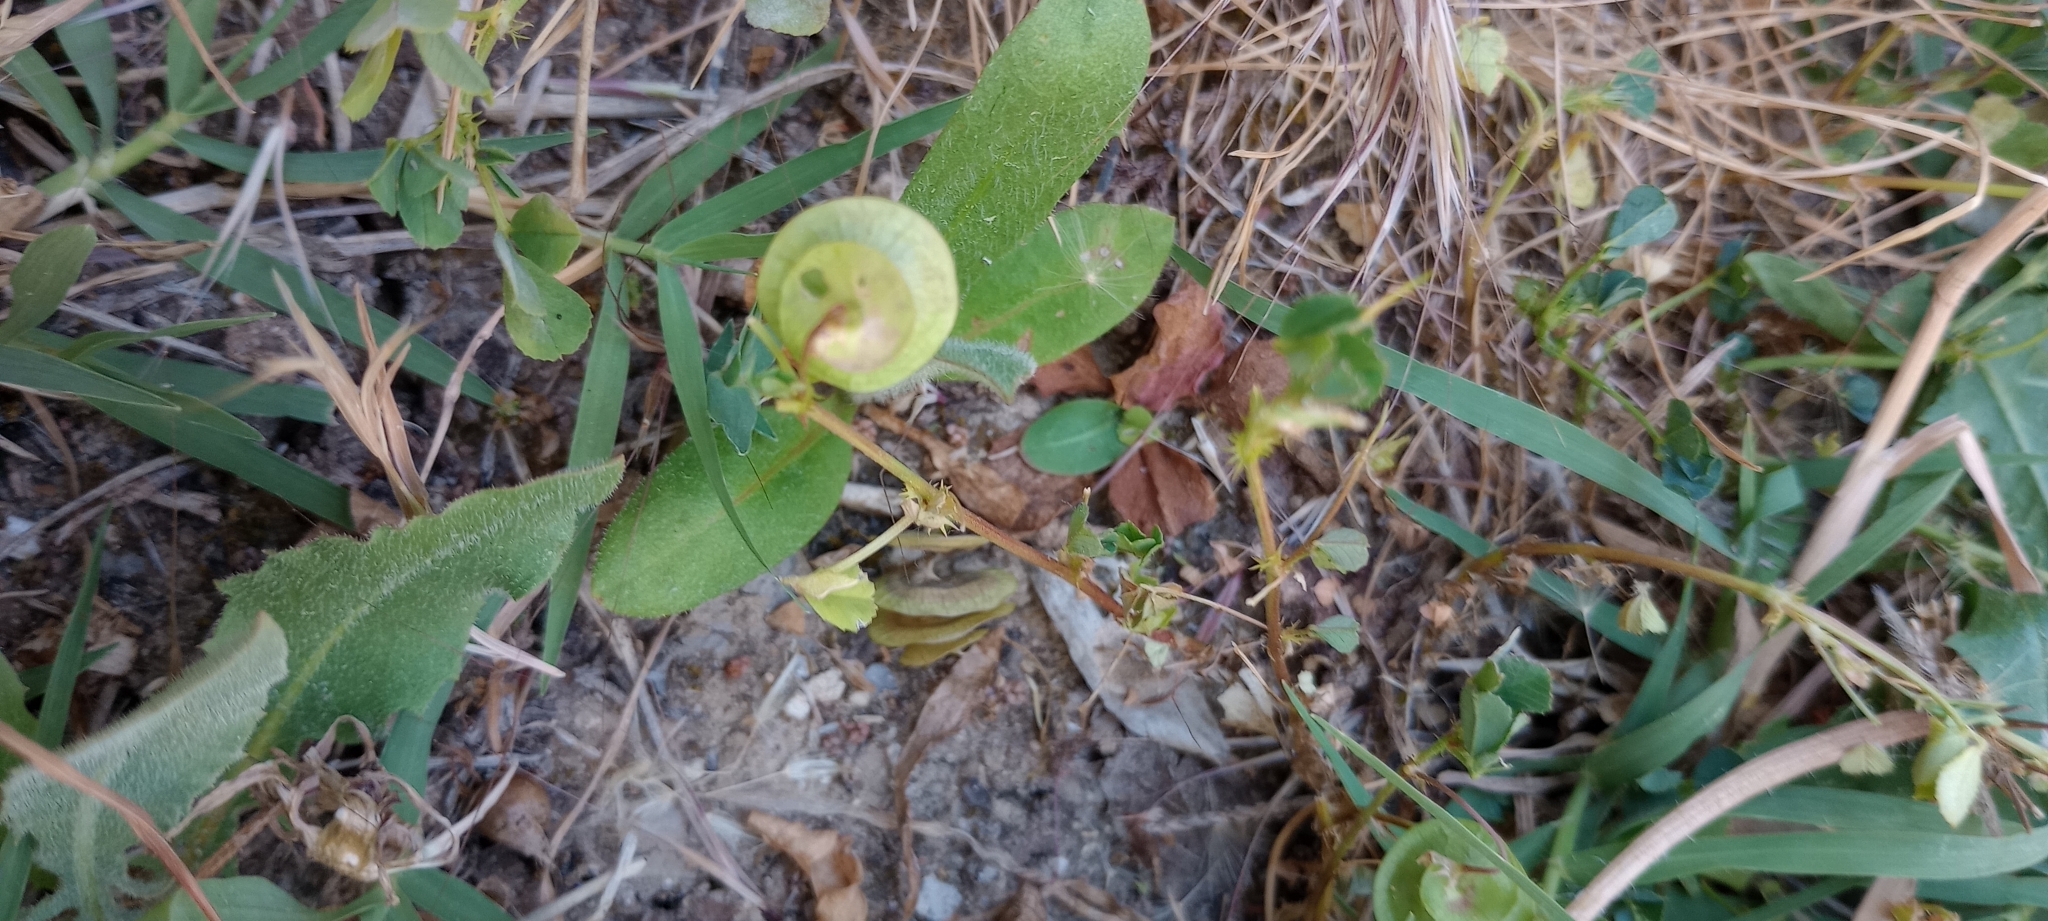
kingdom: Plantae
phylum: Tracheophyta
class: Magnoliopsida
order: Fabales
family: Fabaceae
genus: Medicago
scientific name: Medicago orbicularis
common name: Button medick
